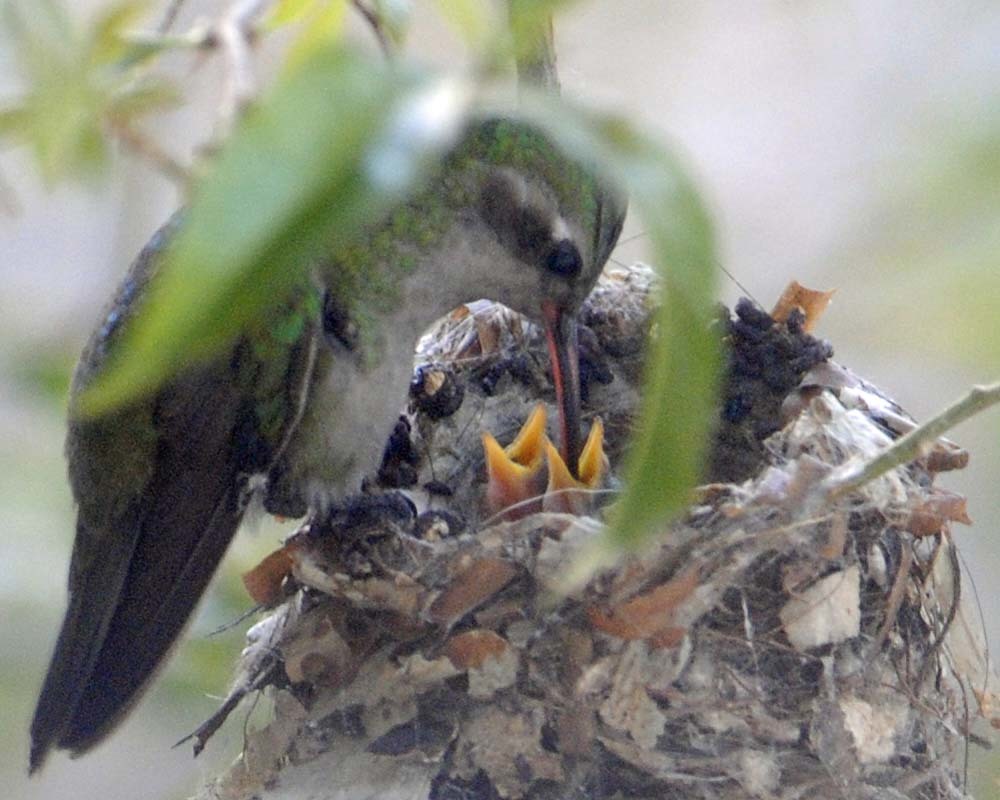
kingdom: Animalia
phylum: Chordata
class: Aves
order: Apodiformes
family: Trochilidae
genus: Cynanthus
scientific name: Cynanthus latirostris
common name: Broad-billed hummingbird
